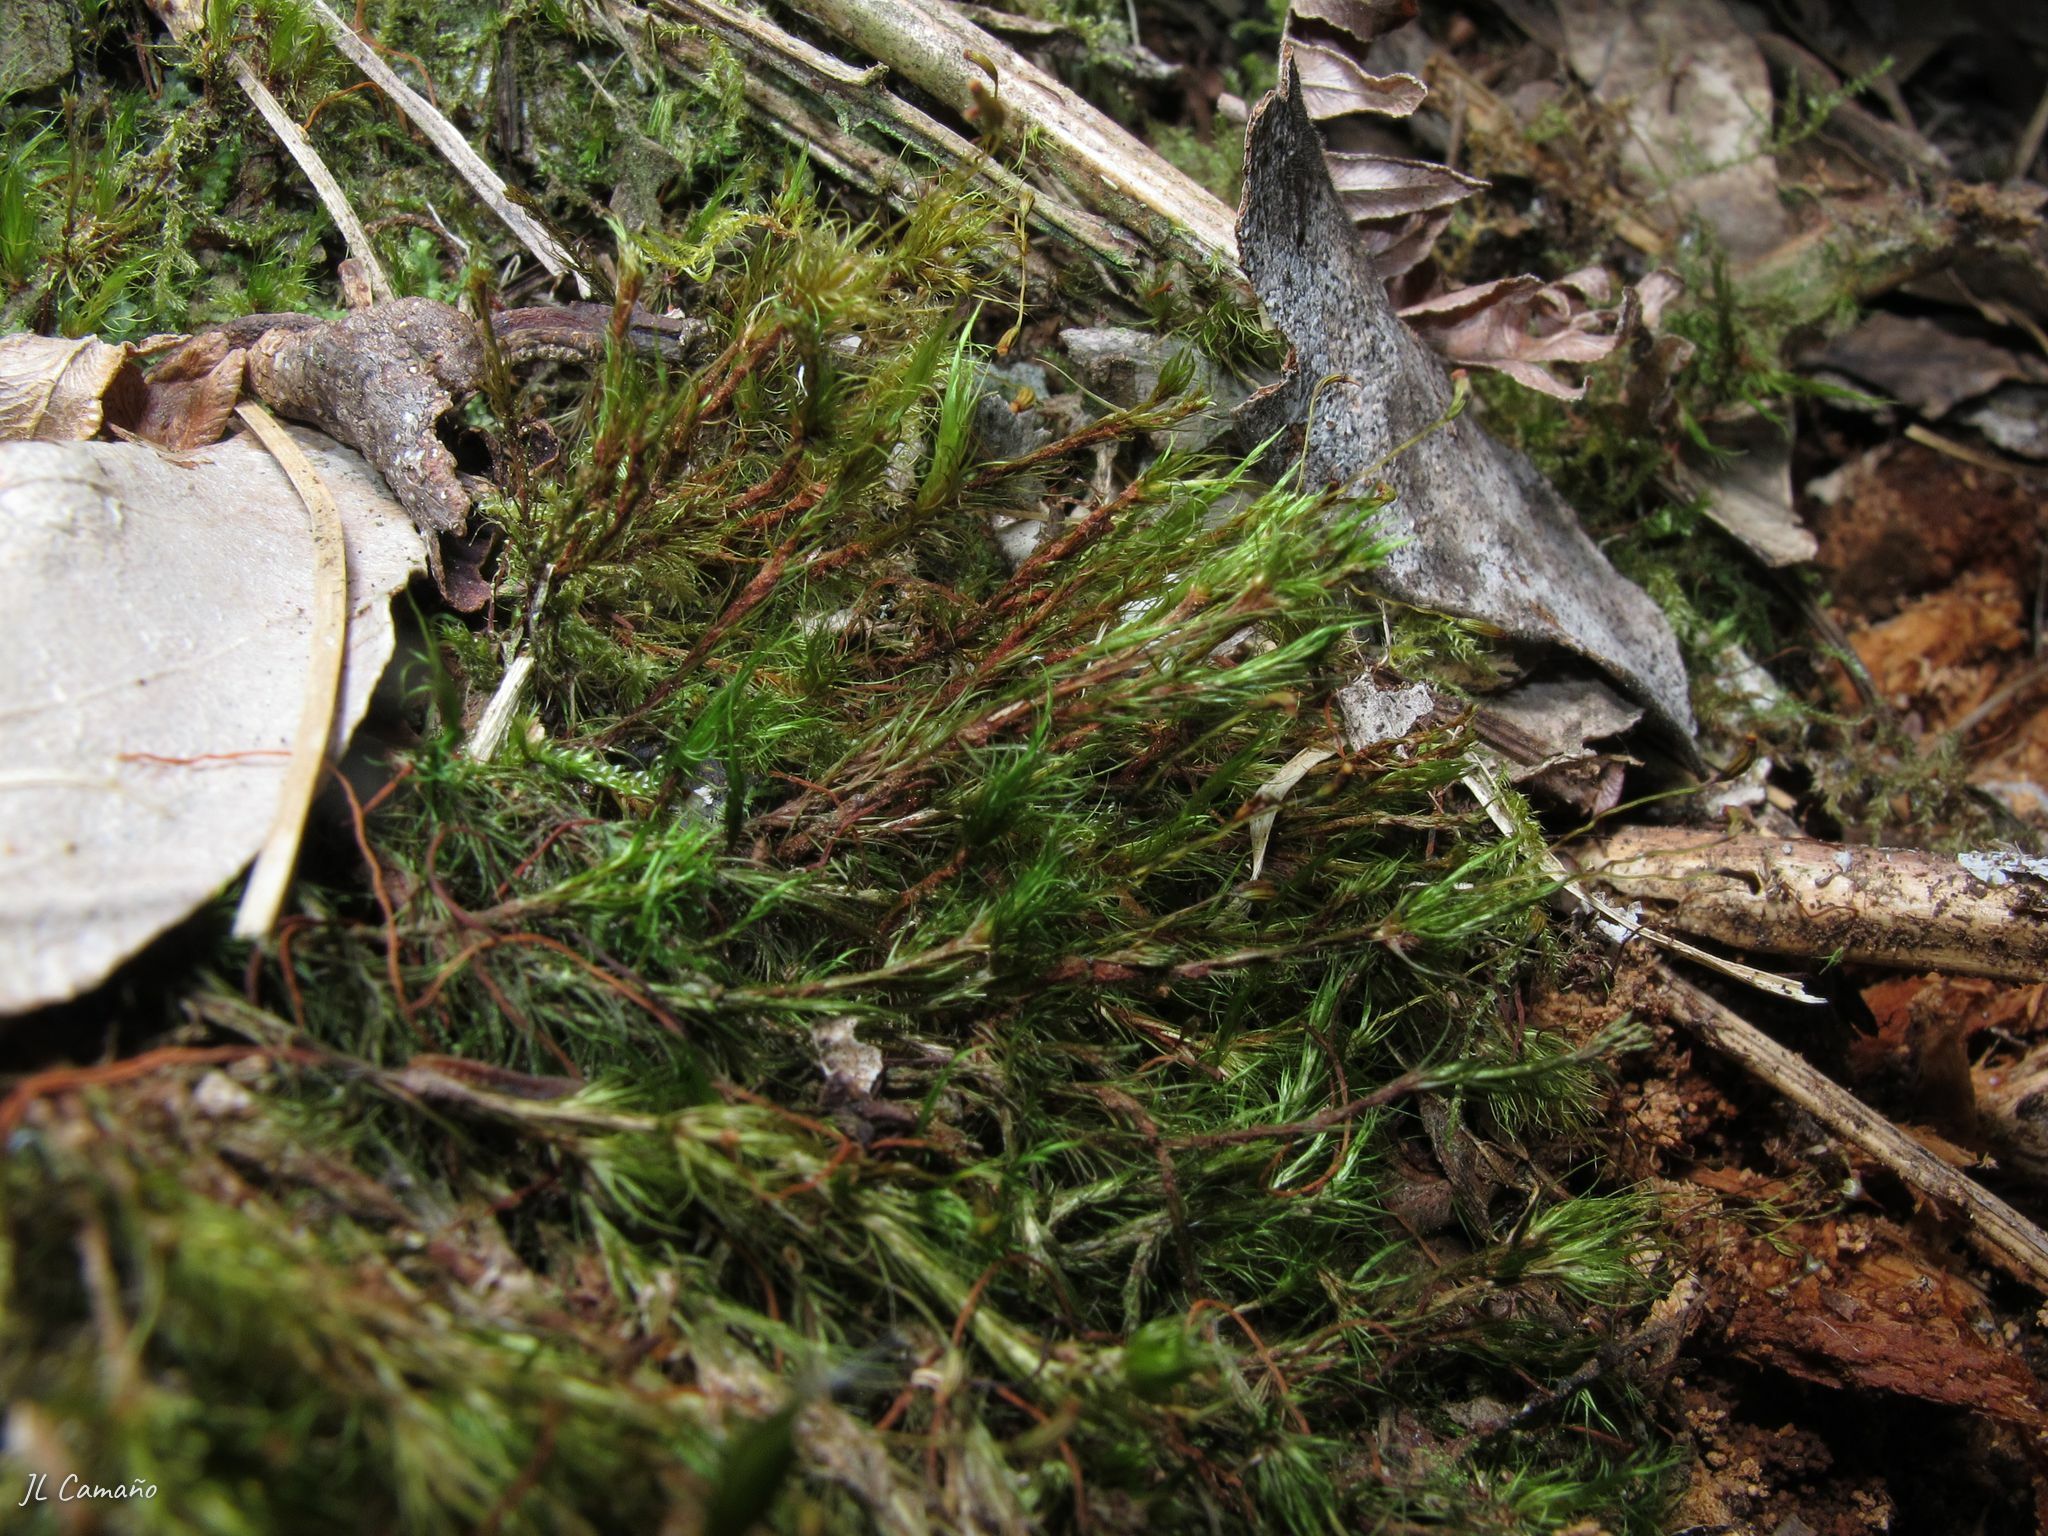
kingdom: Plantae
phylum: Bryophyta
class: Bryopsida
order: Dicranales
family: Leucobryaceae
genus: Campylopus
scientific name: Campylopus flexuosus
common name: Rusty swan-neck moss
